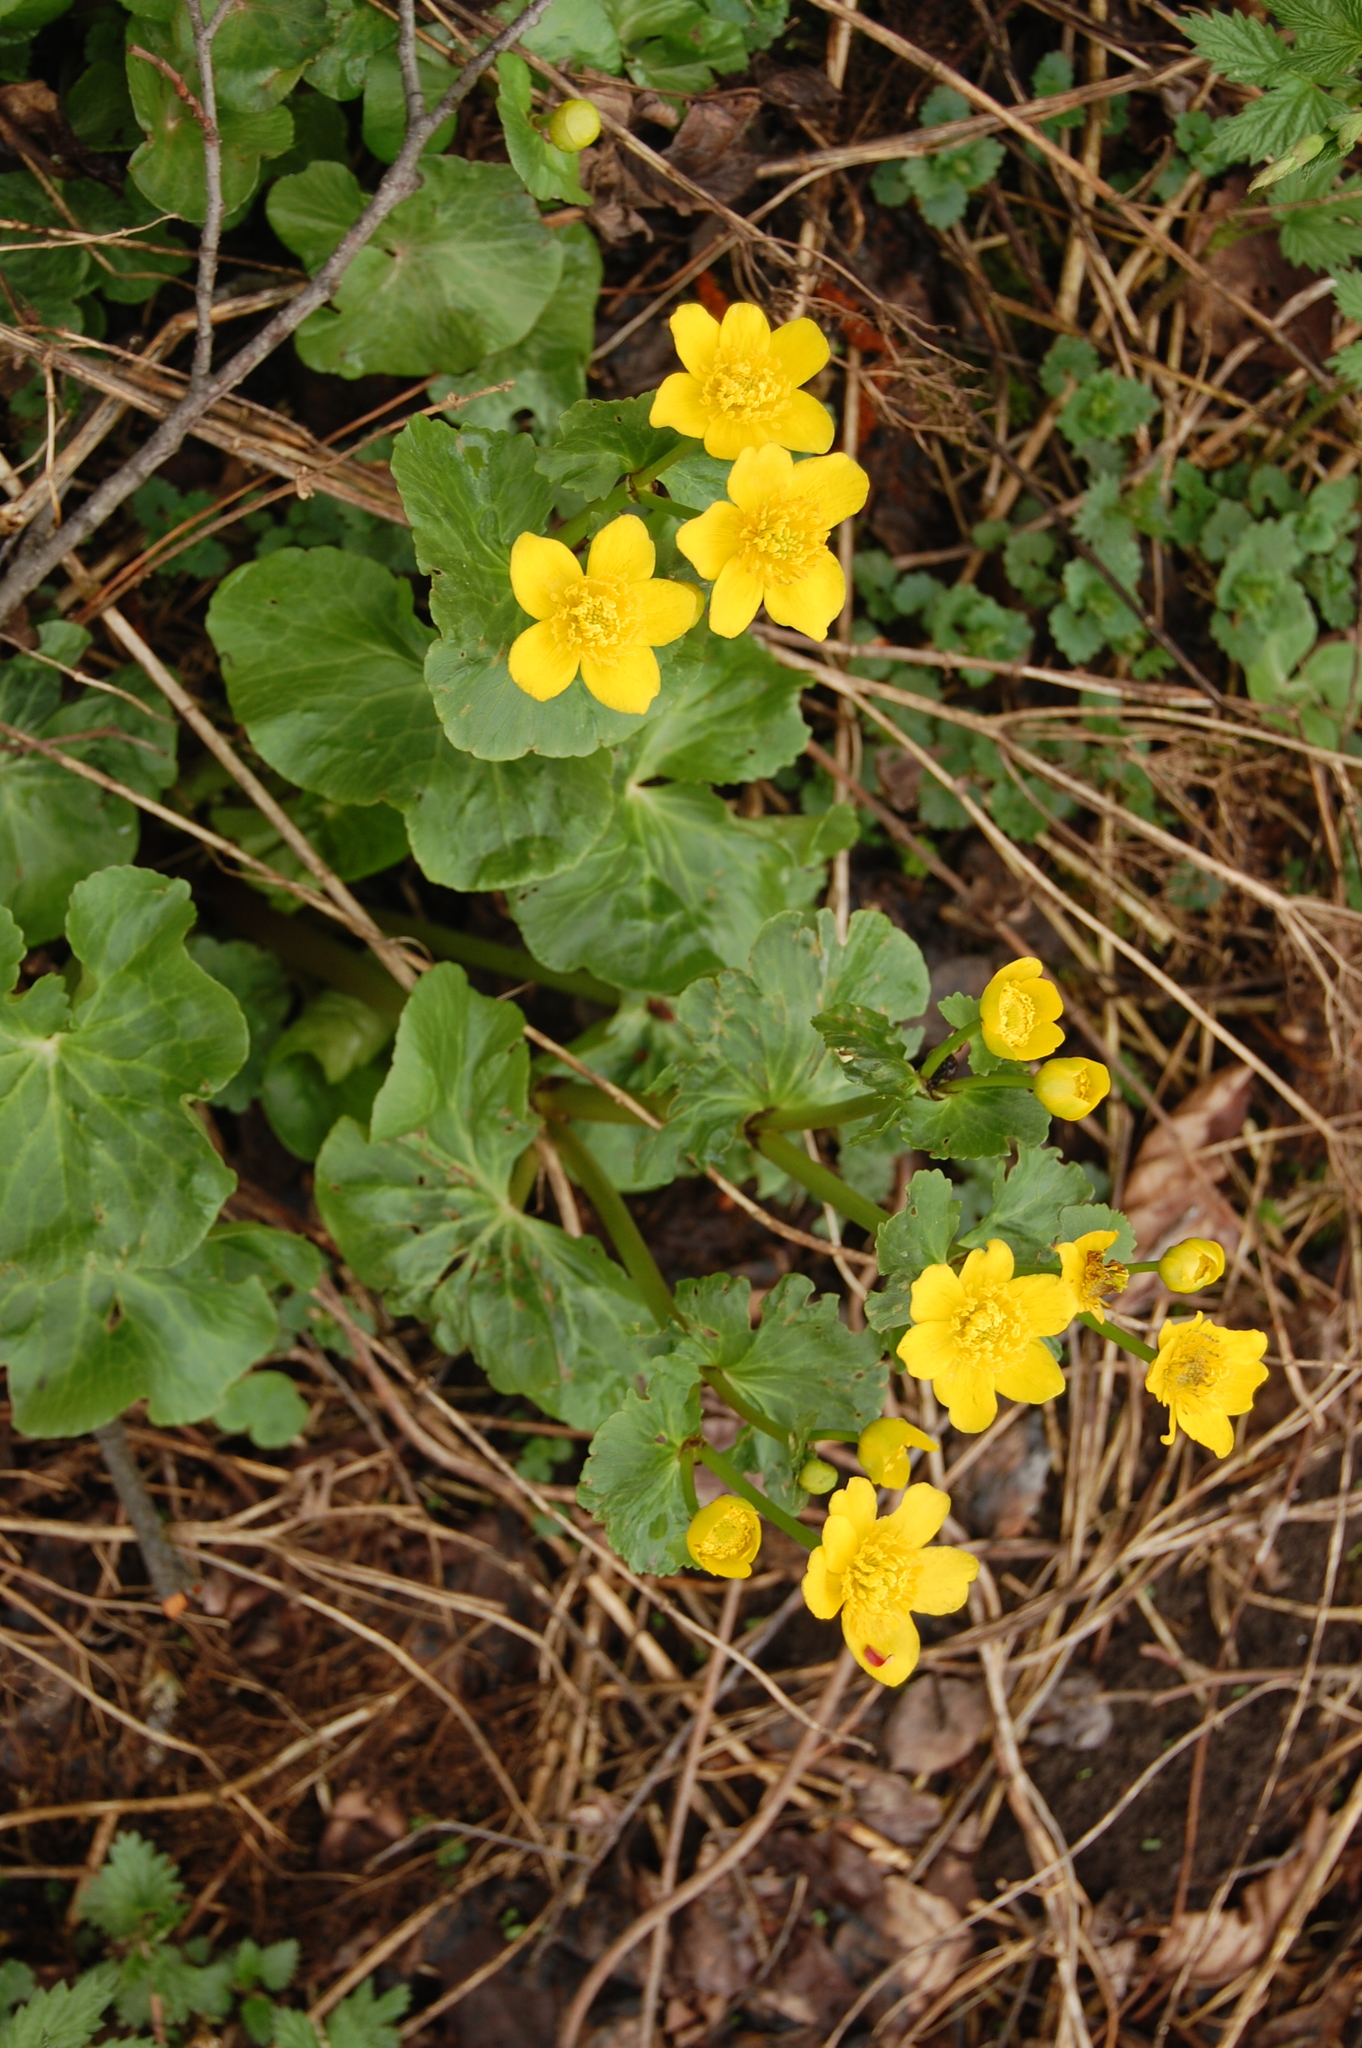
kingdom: Plantae
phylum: Tracheophyta
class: Magnoliopsida
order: Ranunculales
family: Ranunculaceae
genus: Caltha
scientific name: Caltha palustris
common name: Marsh marigold
